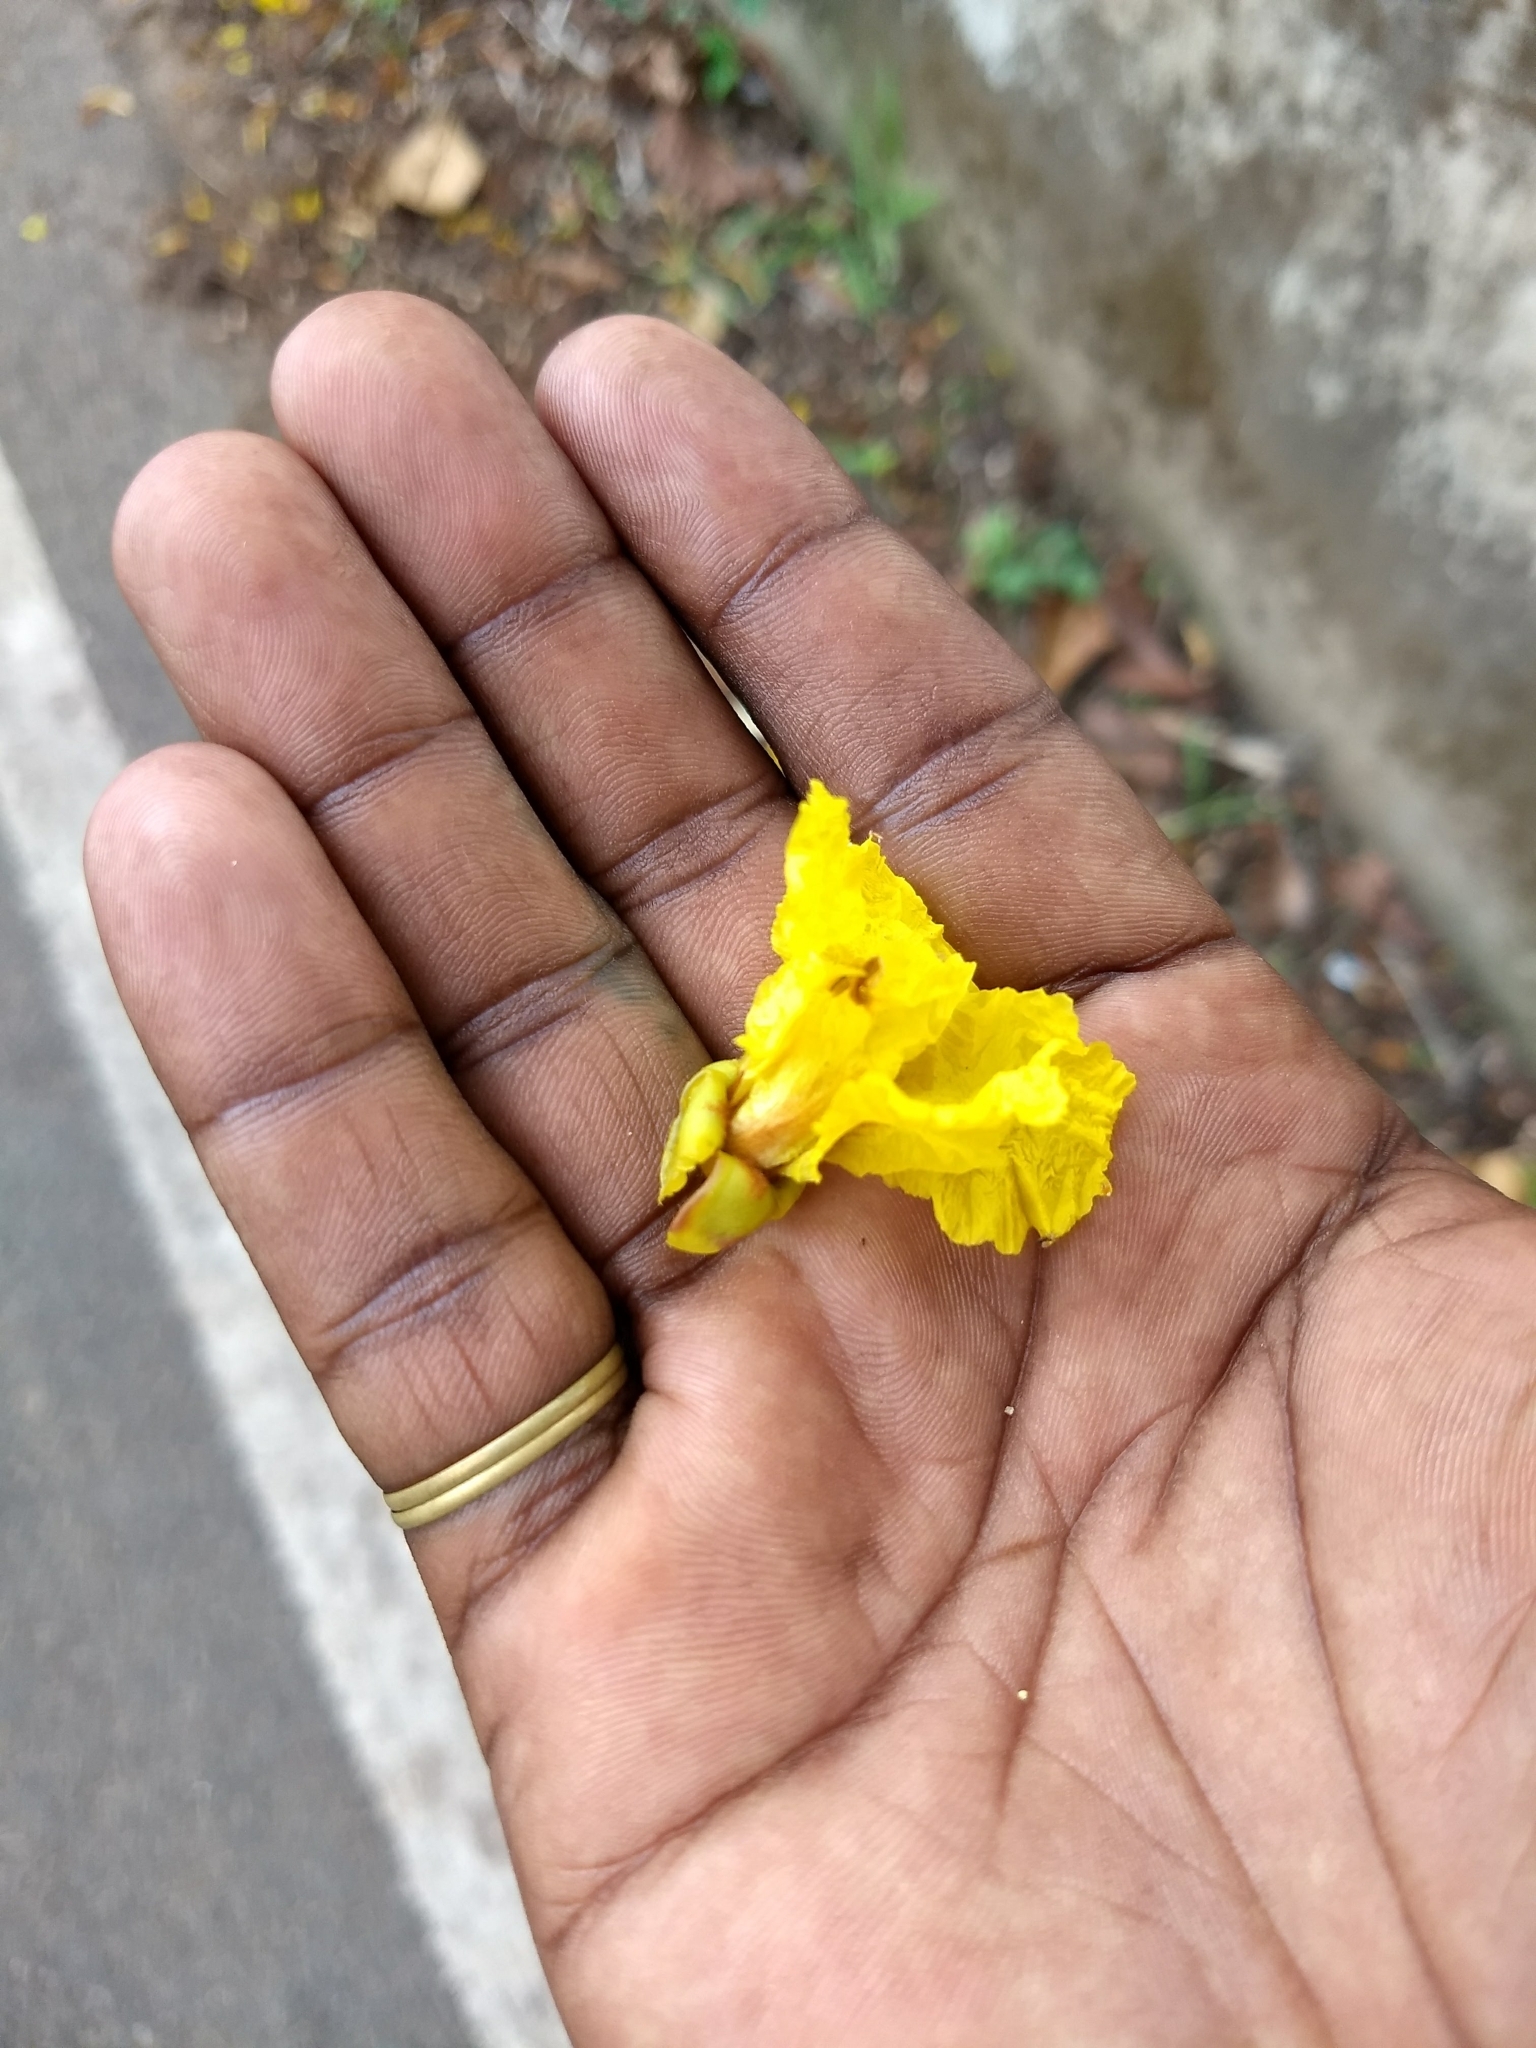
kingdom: Plantae
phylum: Tracheophyta
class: Magnoliopsida
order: Fabales
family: Fabaceae
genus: Peltophorum
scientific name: Peltophorum pterocarpum
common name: Yellow flame
